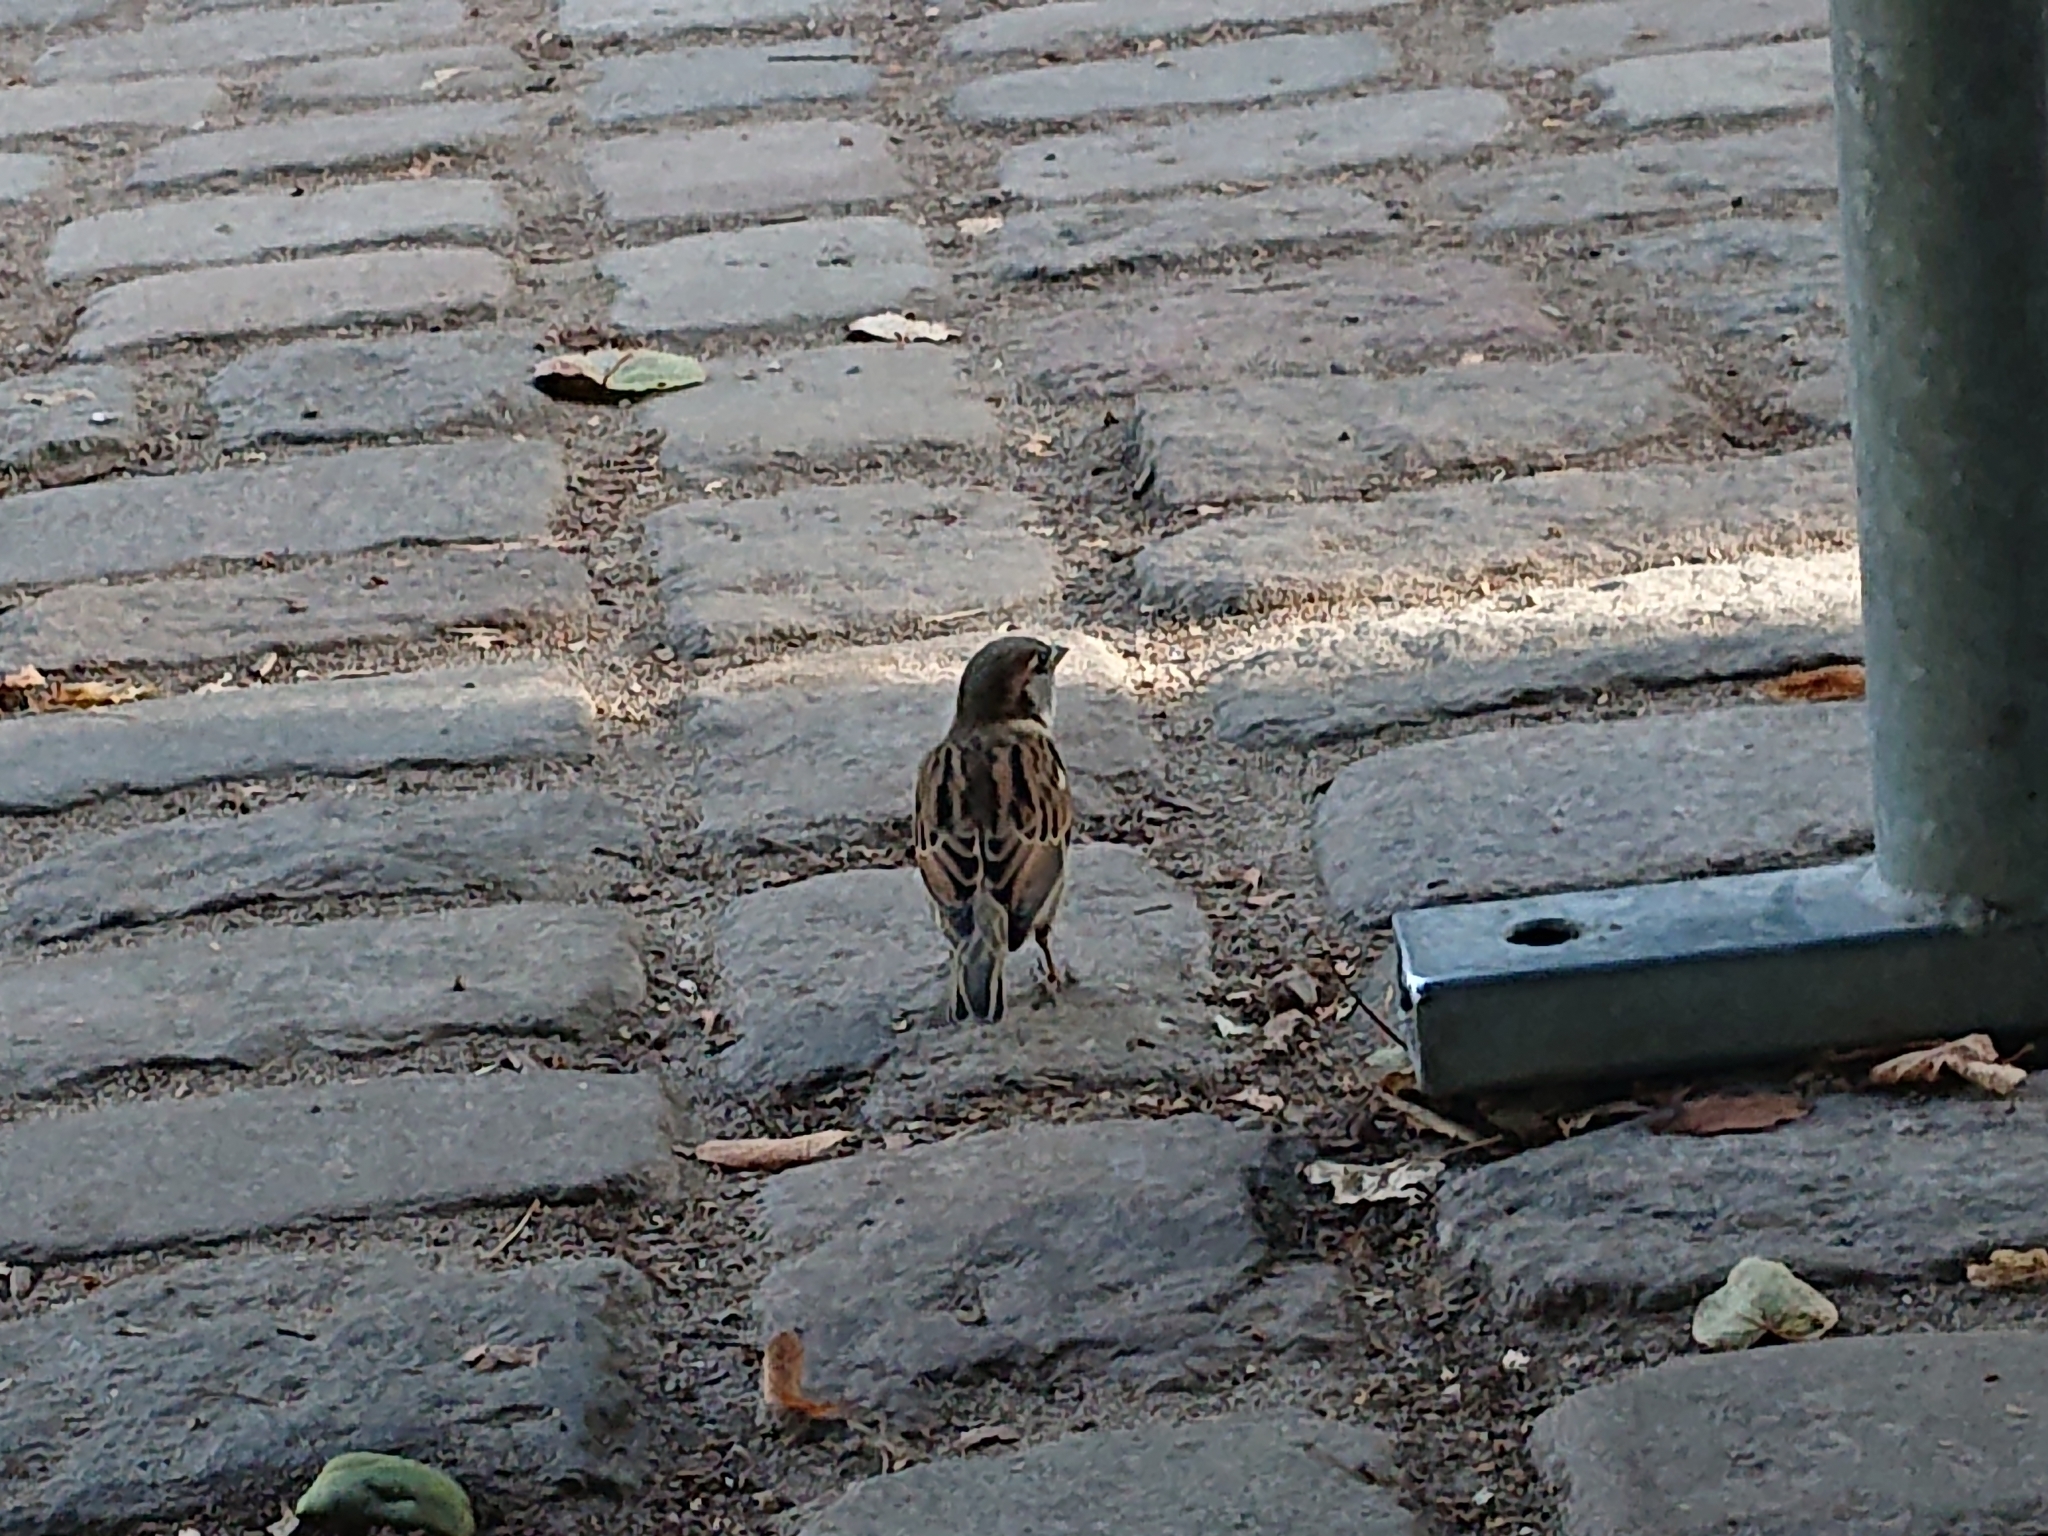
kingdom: Animalia
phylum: Chordata
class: Aves
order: Passeriformes
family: Passeridae
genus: Passer
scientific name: Passer domesticus
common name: House sparrow
